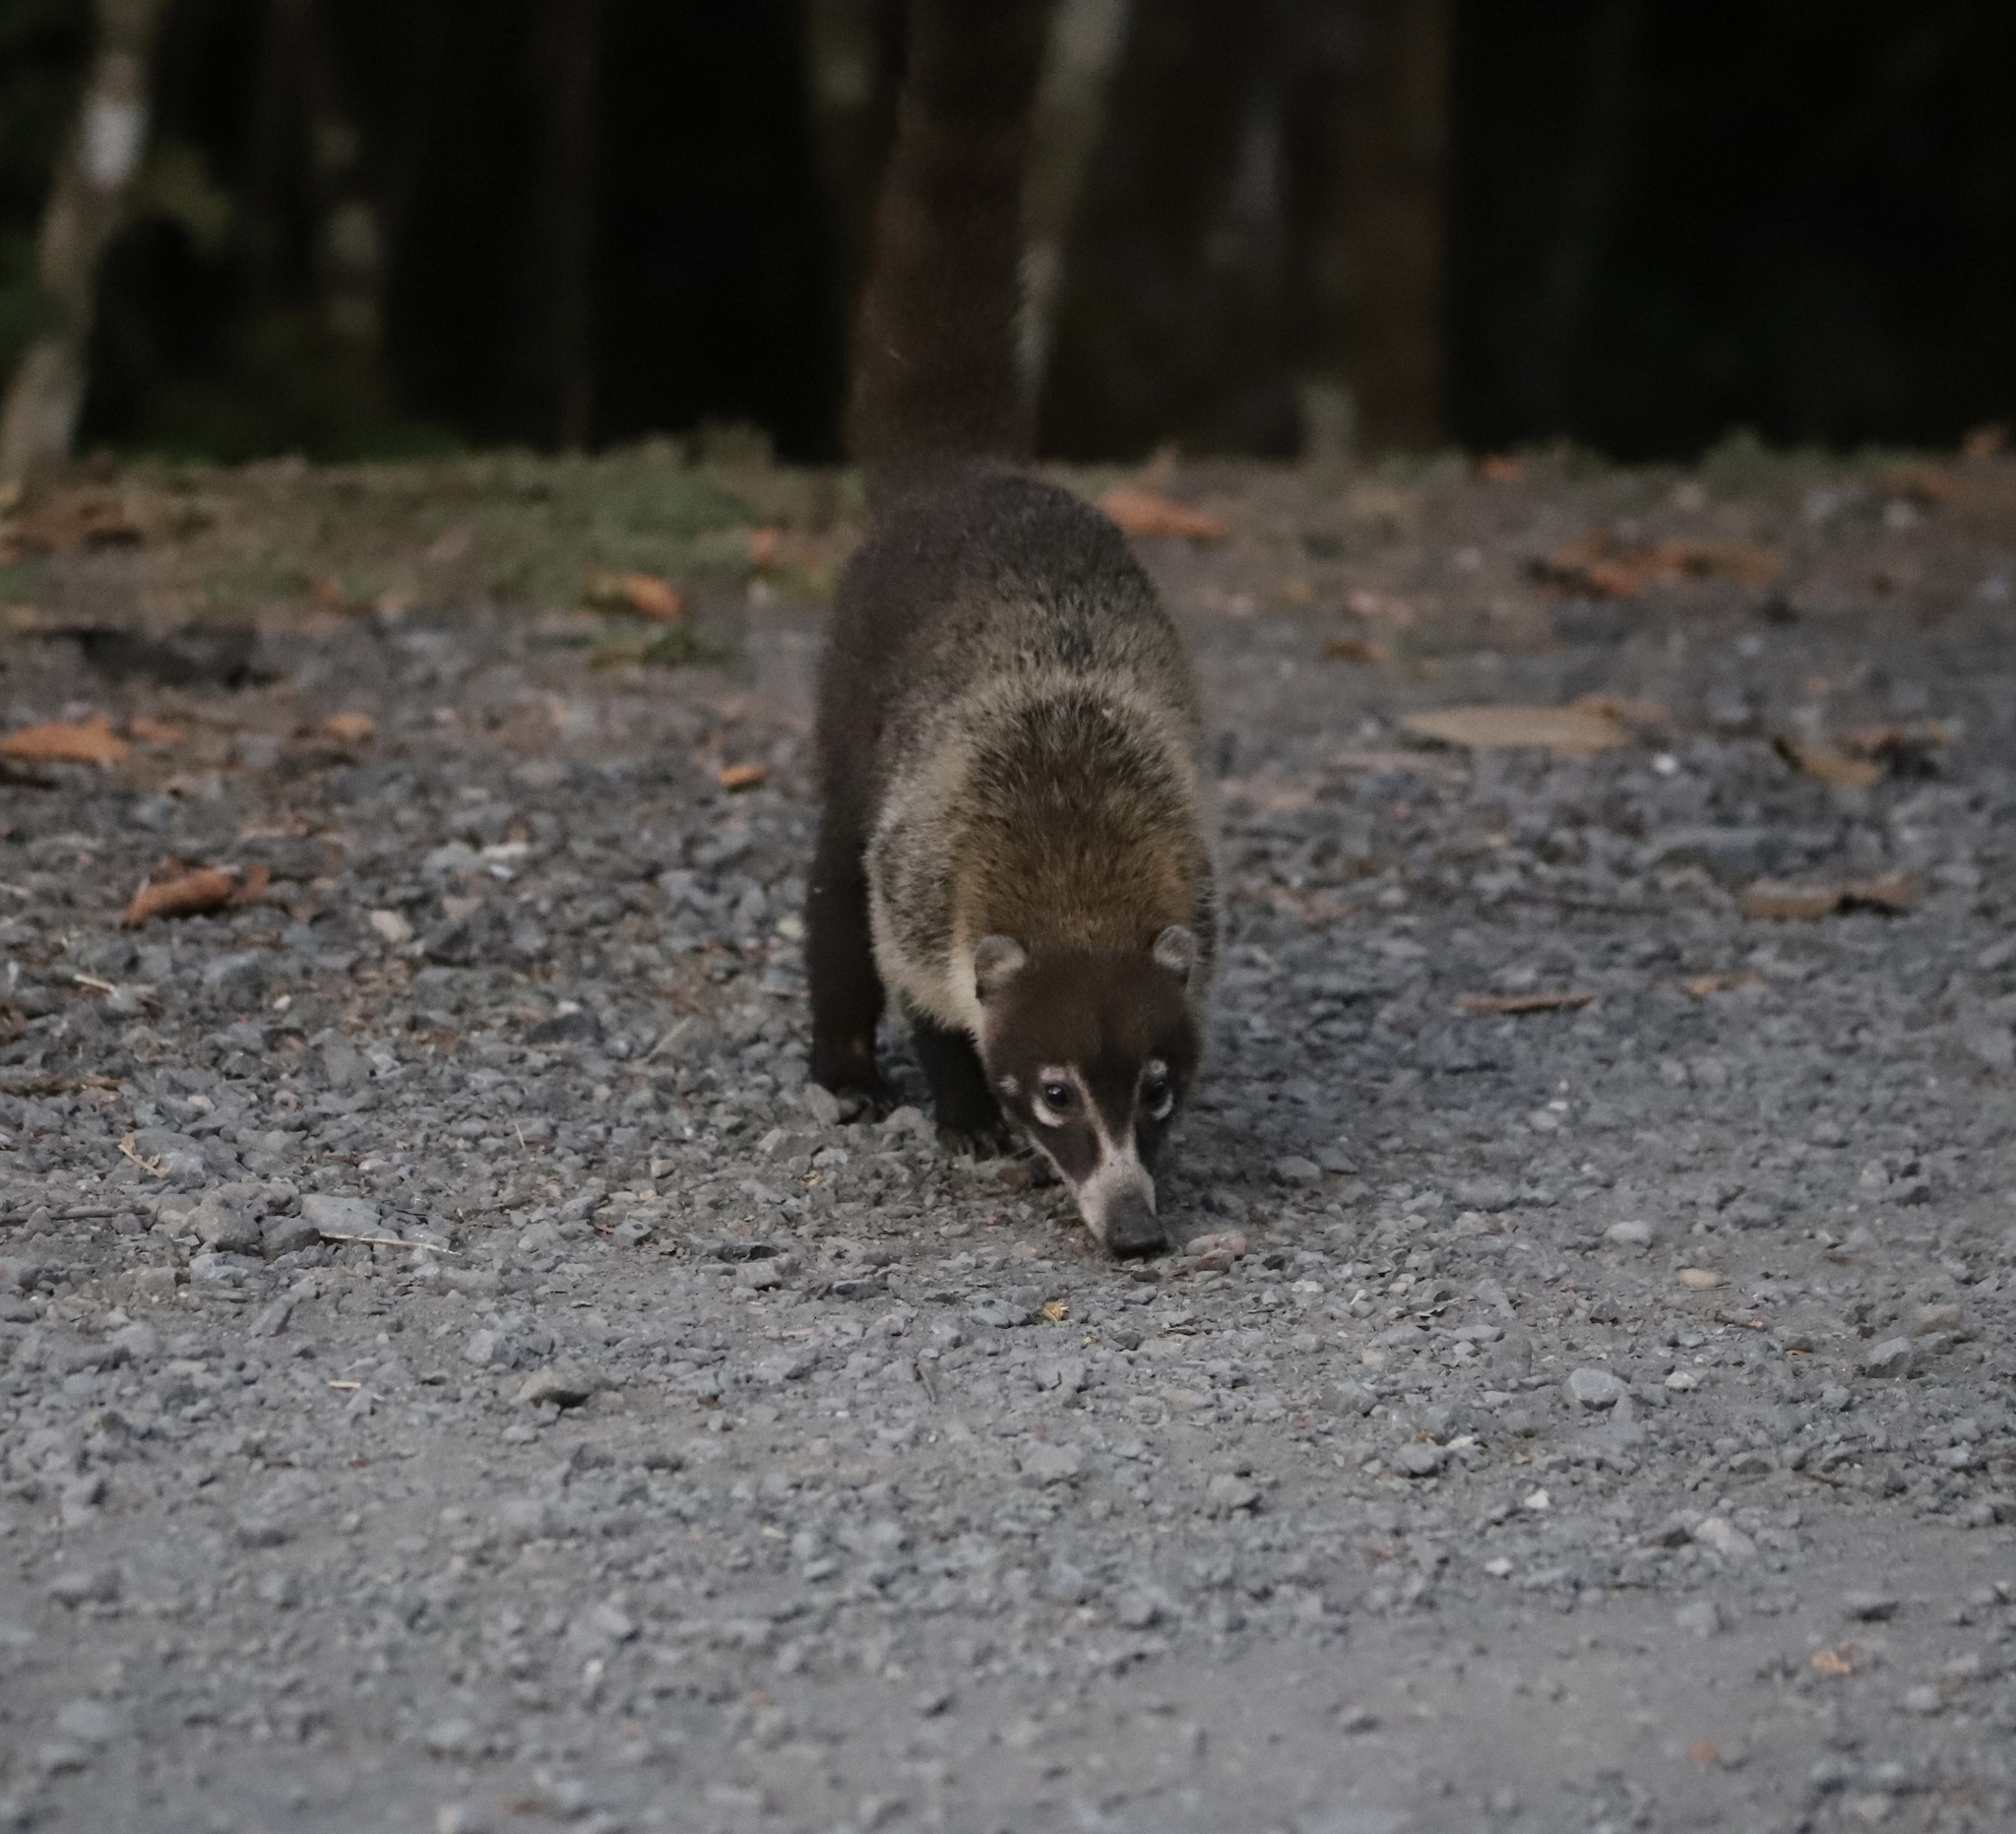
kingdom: Animalia
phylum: Chordata
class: Mammalia
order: Carnivora
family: Procyonidae
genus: Nasua
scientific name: Nasua narica
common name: White-nosed coati
